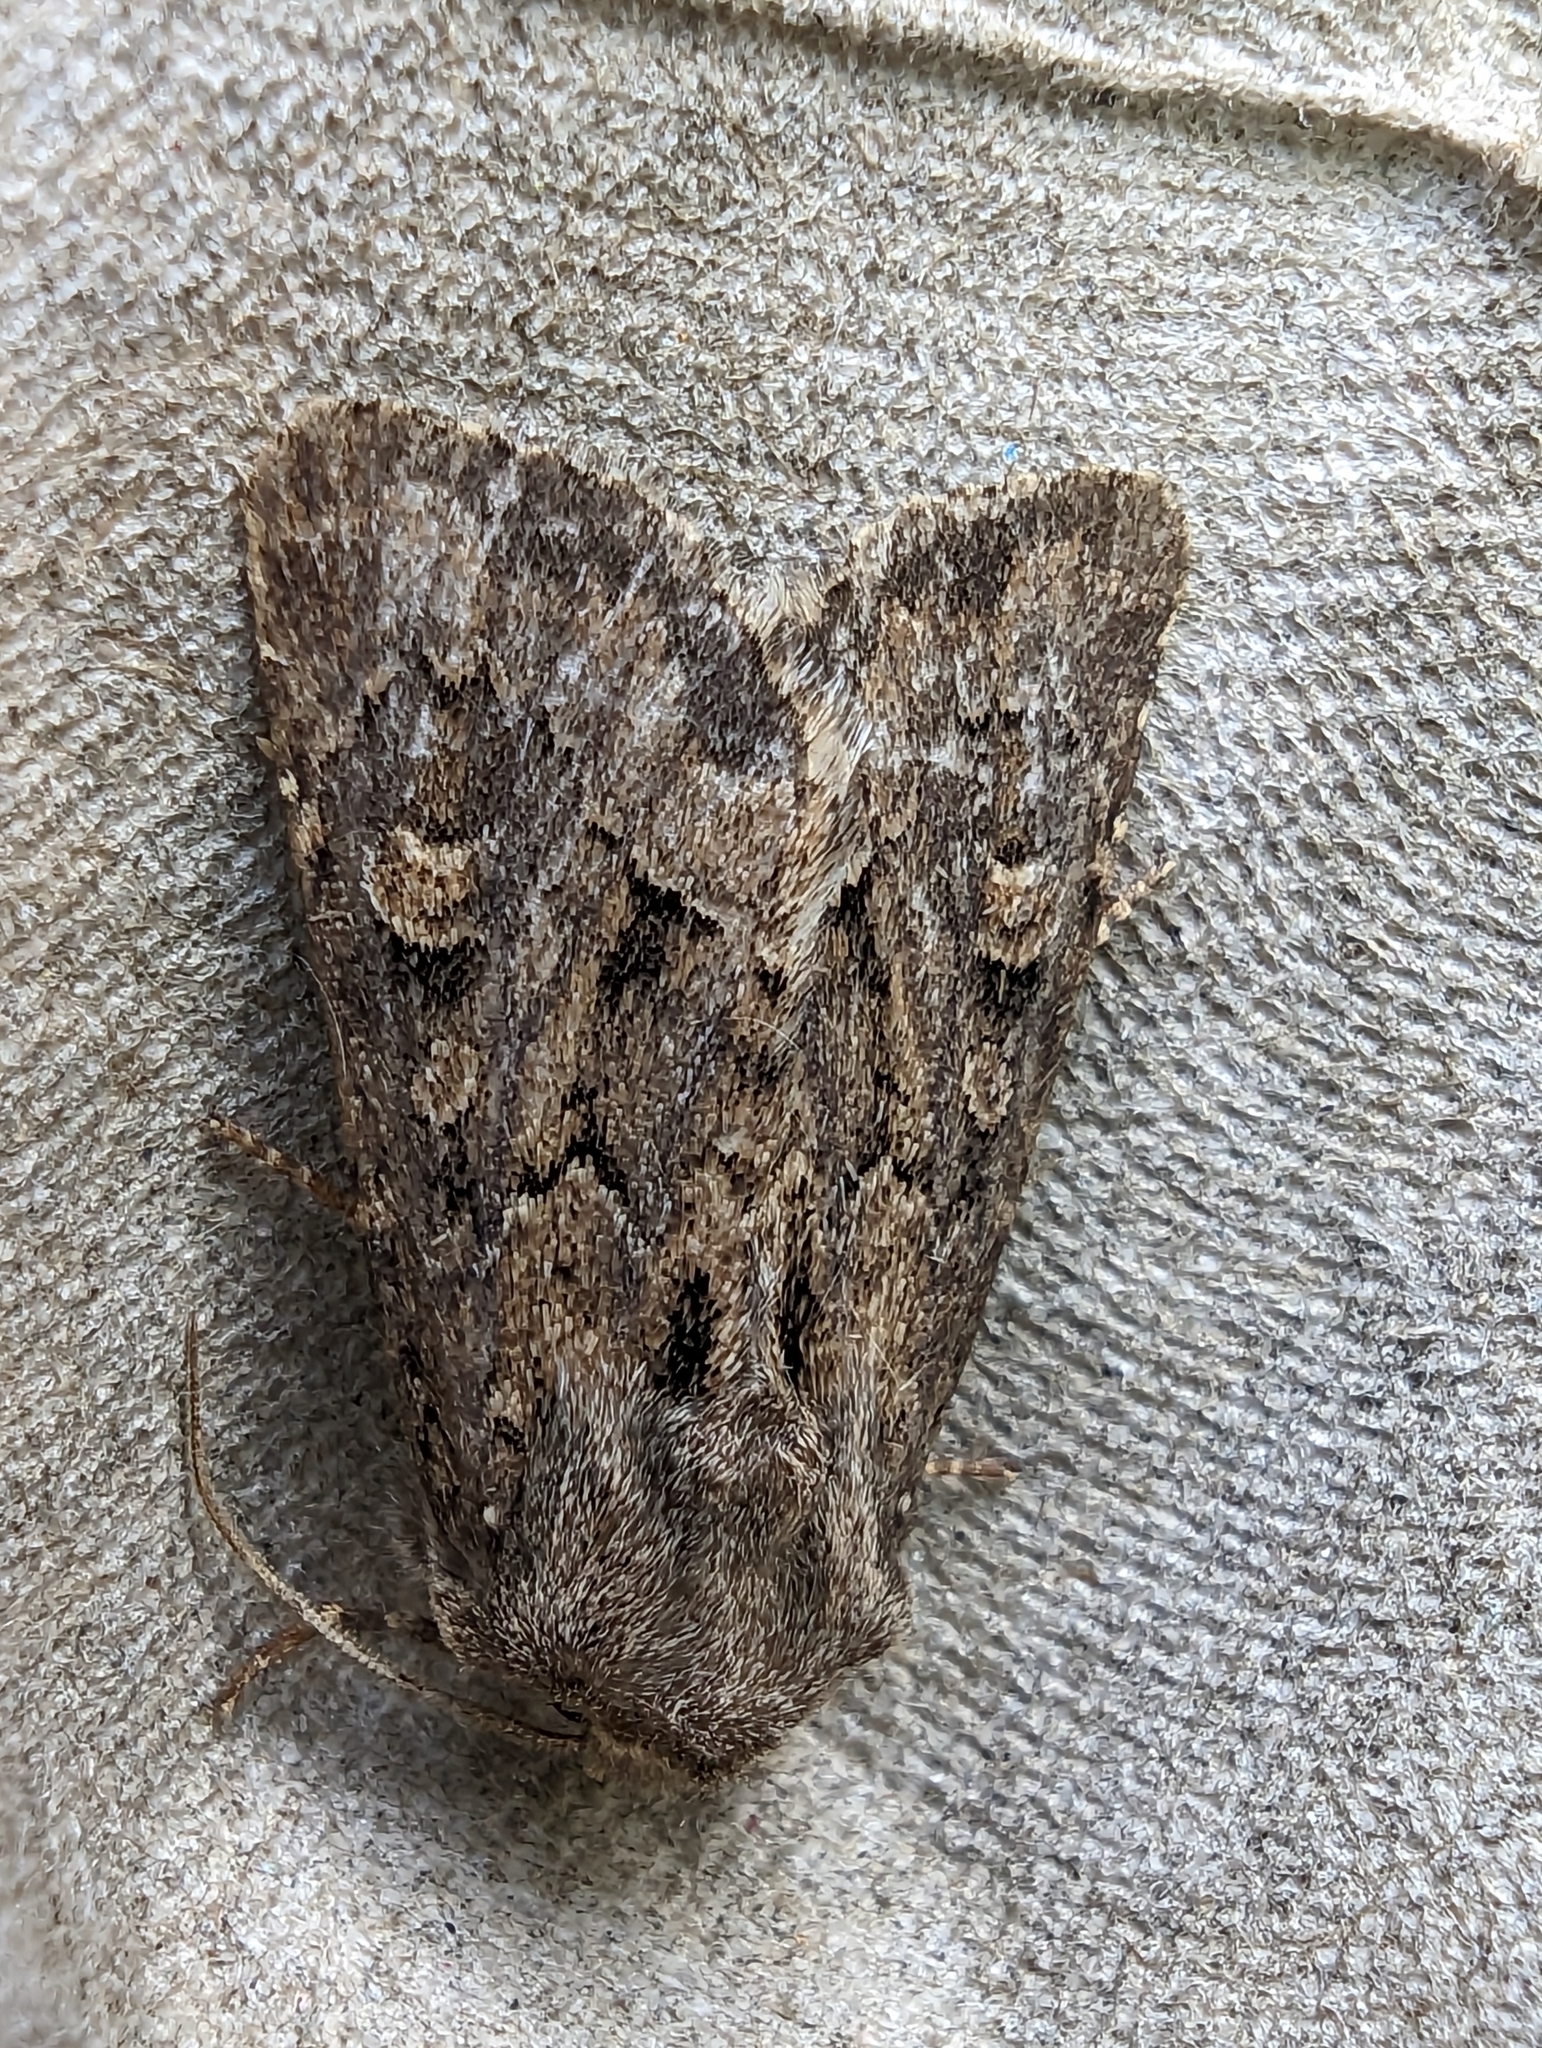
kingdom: Animalia
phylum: Arthropoda
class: Insecta
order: Lepidoptera
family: Noctuidae
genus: Luperina
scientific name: Luperina testacea
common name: Flounced rustic
